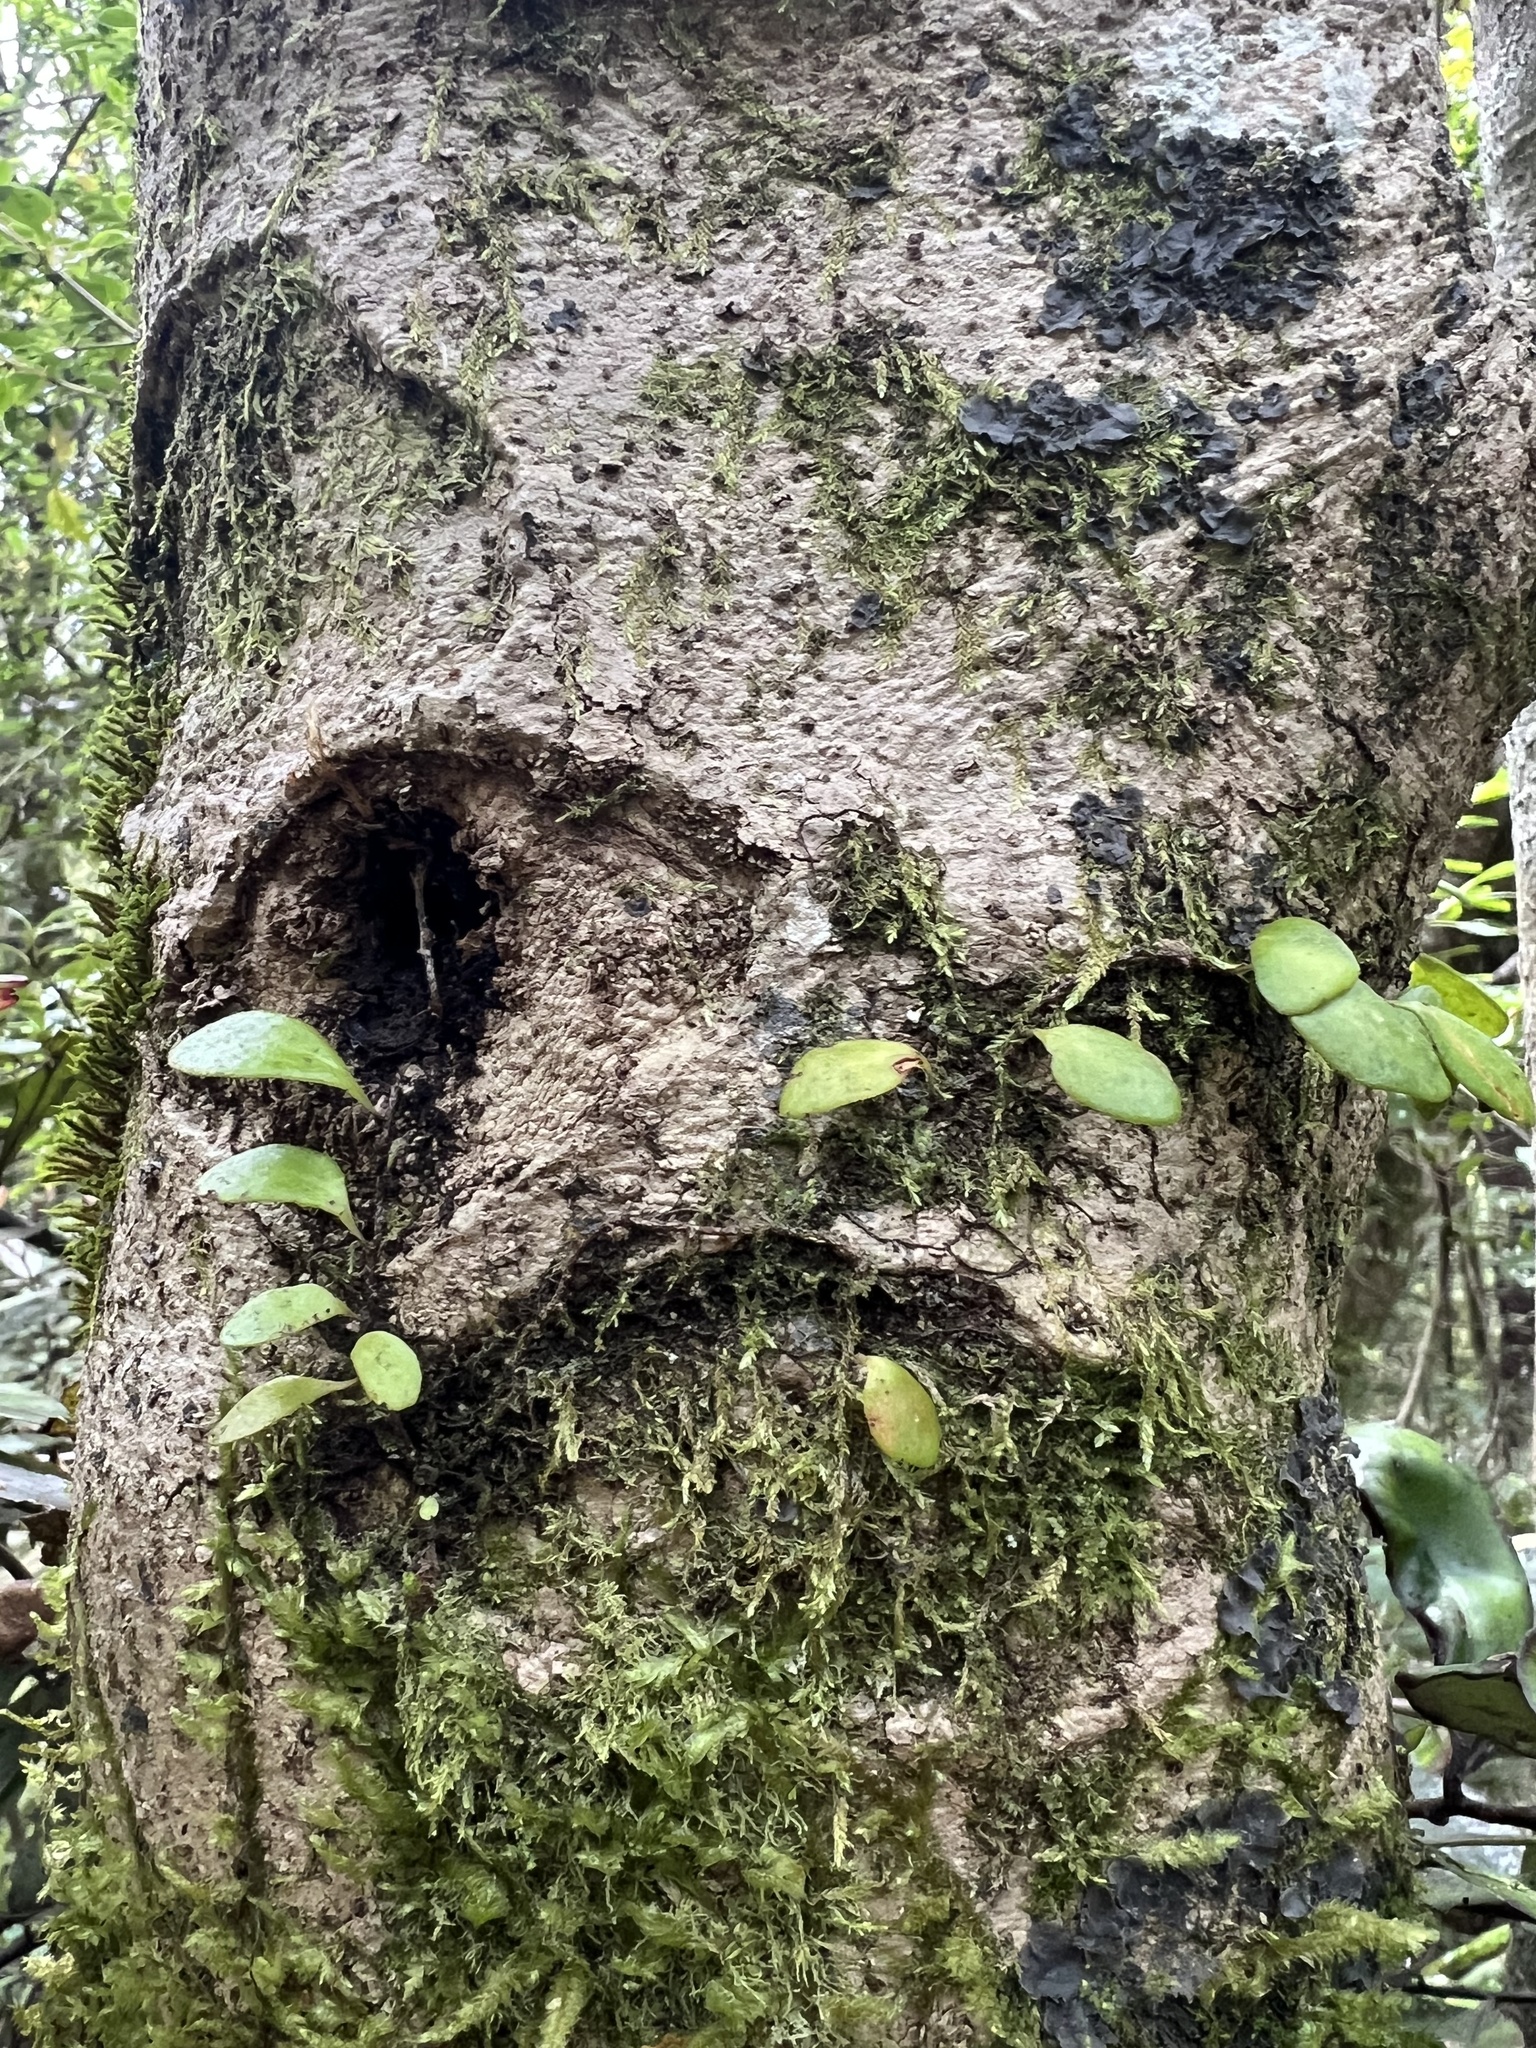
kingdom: Plantae
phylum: Tracheophyta
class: Polypodiopsida
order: Polypodiales
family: Polypodiaceae
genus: Pyrrosia
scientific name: Pyrrosia eleagnifolia
